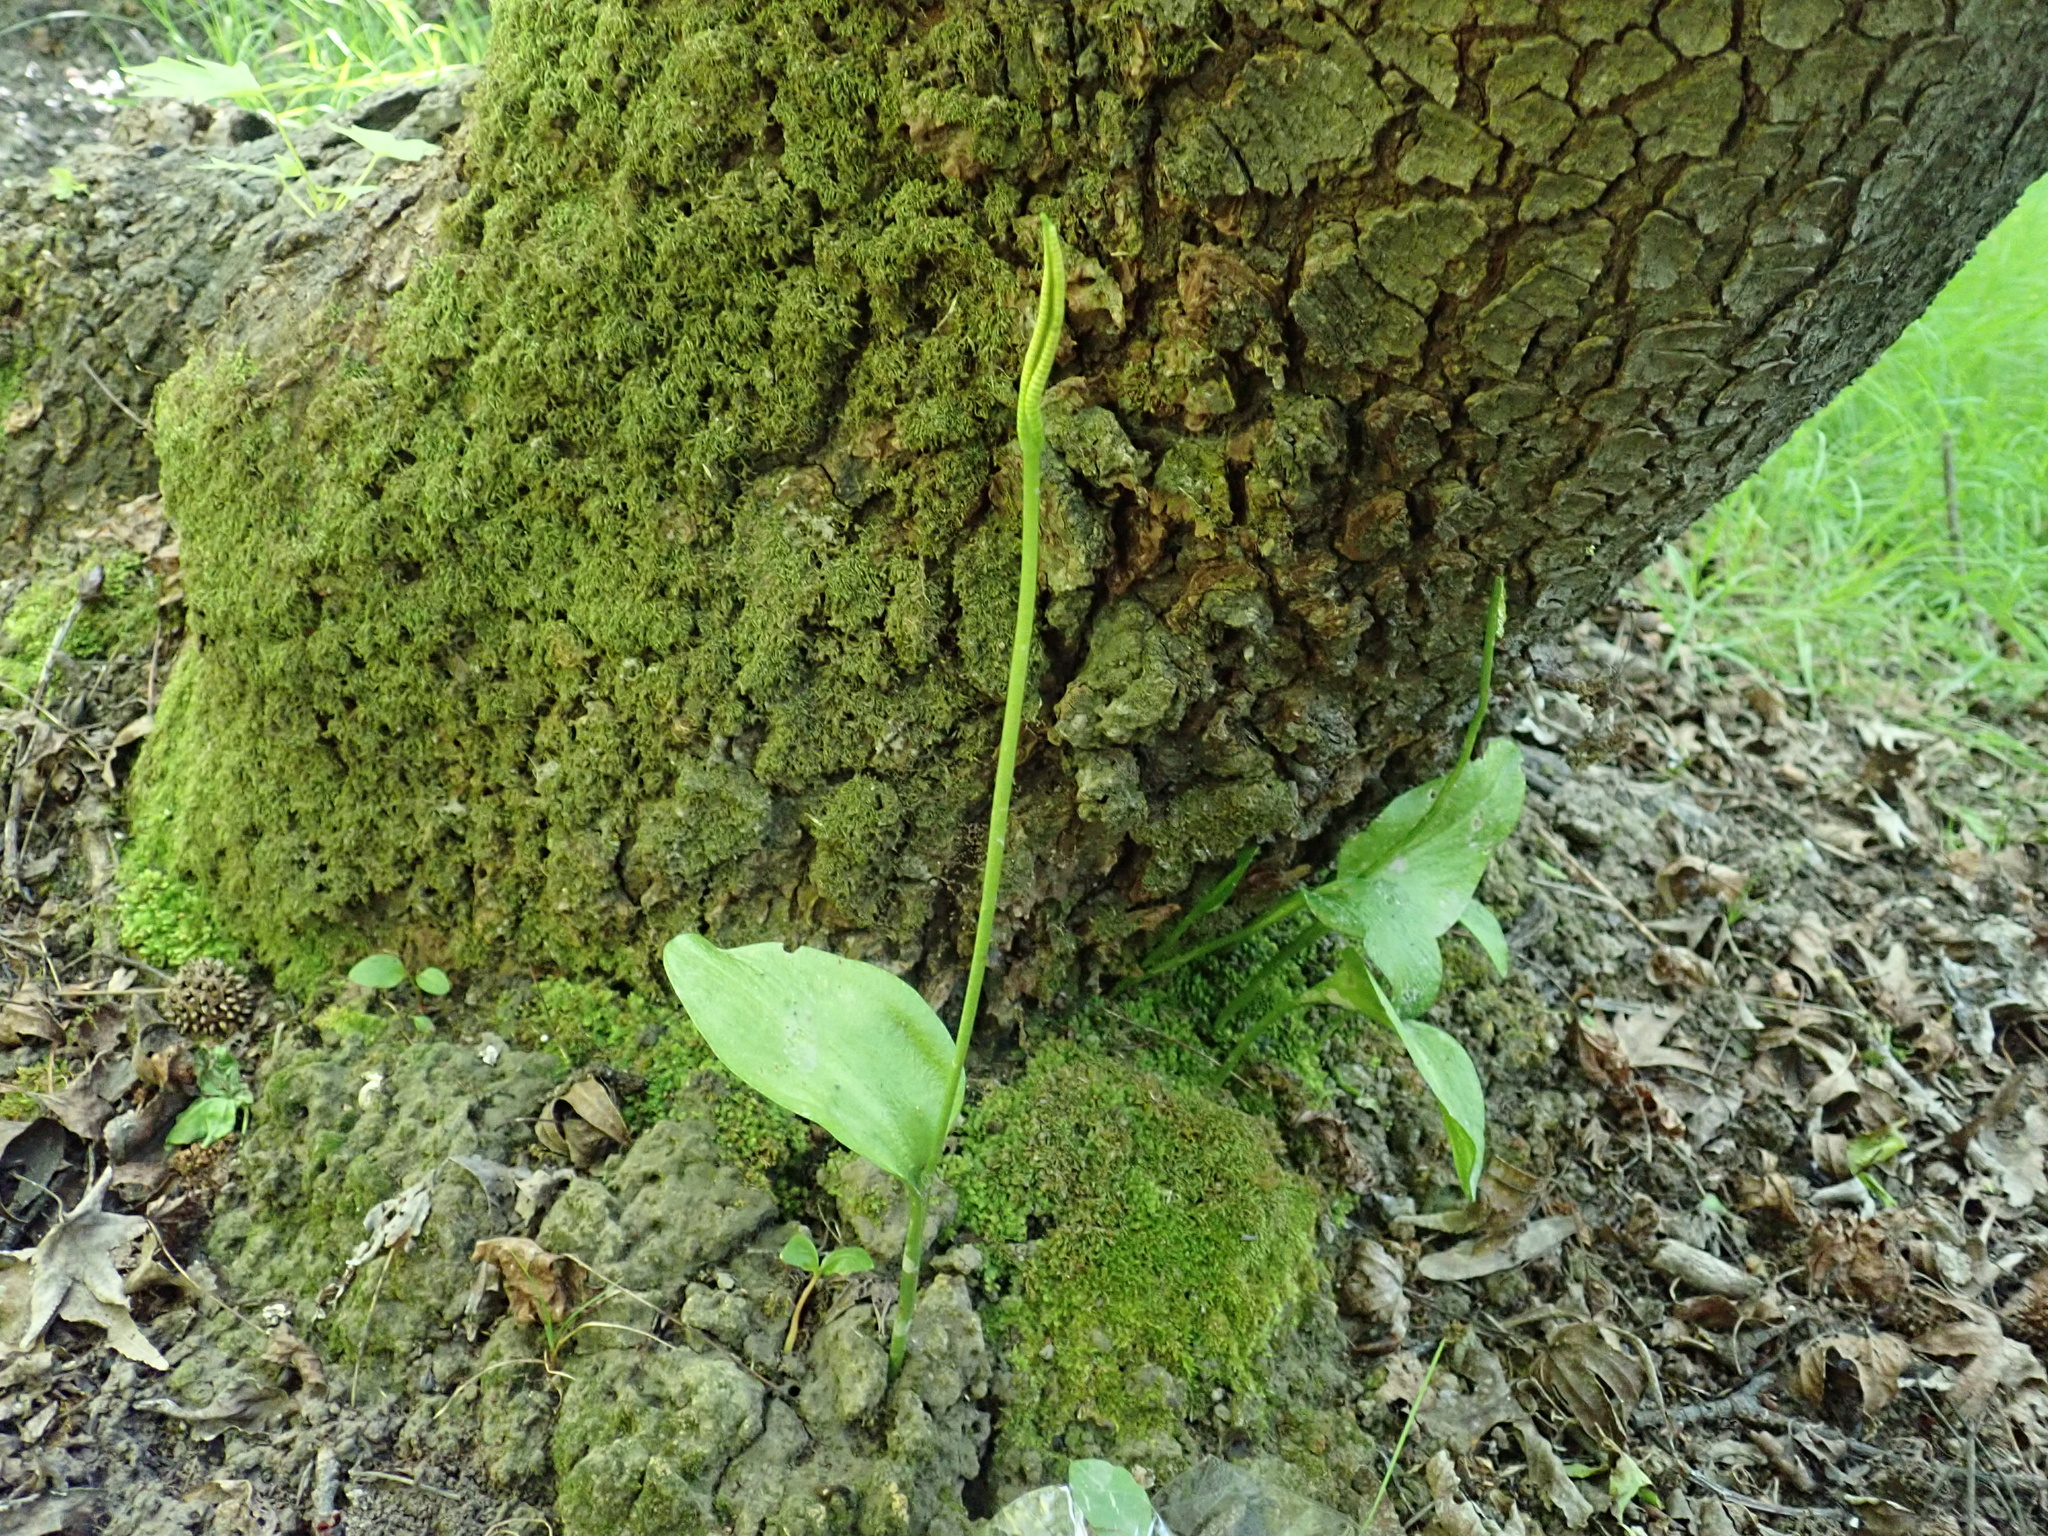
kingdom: Plantae
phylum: Tracheophyta
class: Polypodiopsida
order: Ophioglossales
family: Ophioglossaceae
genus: Ophioglossum
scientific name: Ophioglossum vulgatum
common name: Adder's-tongue
